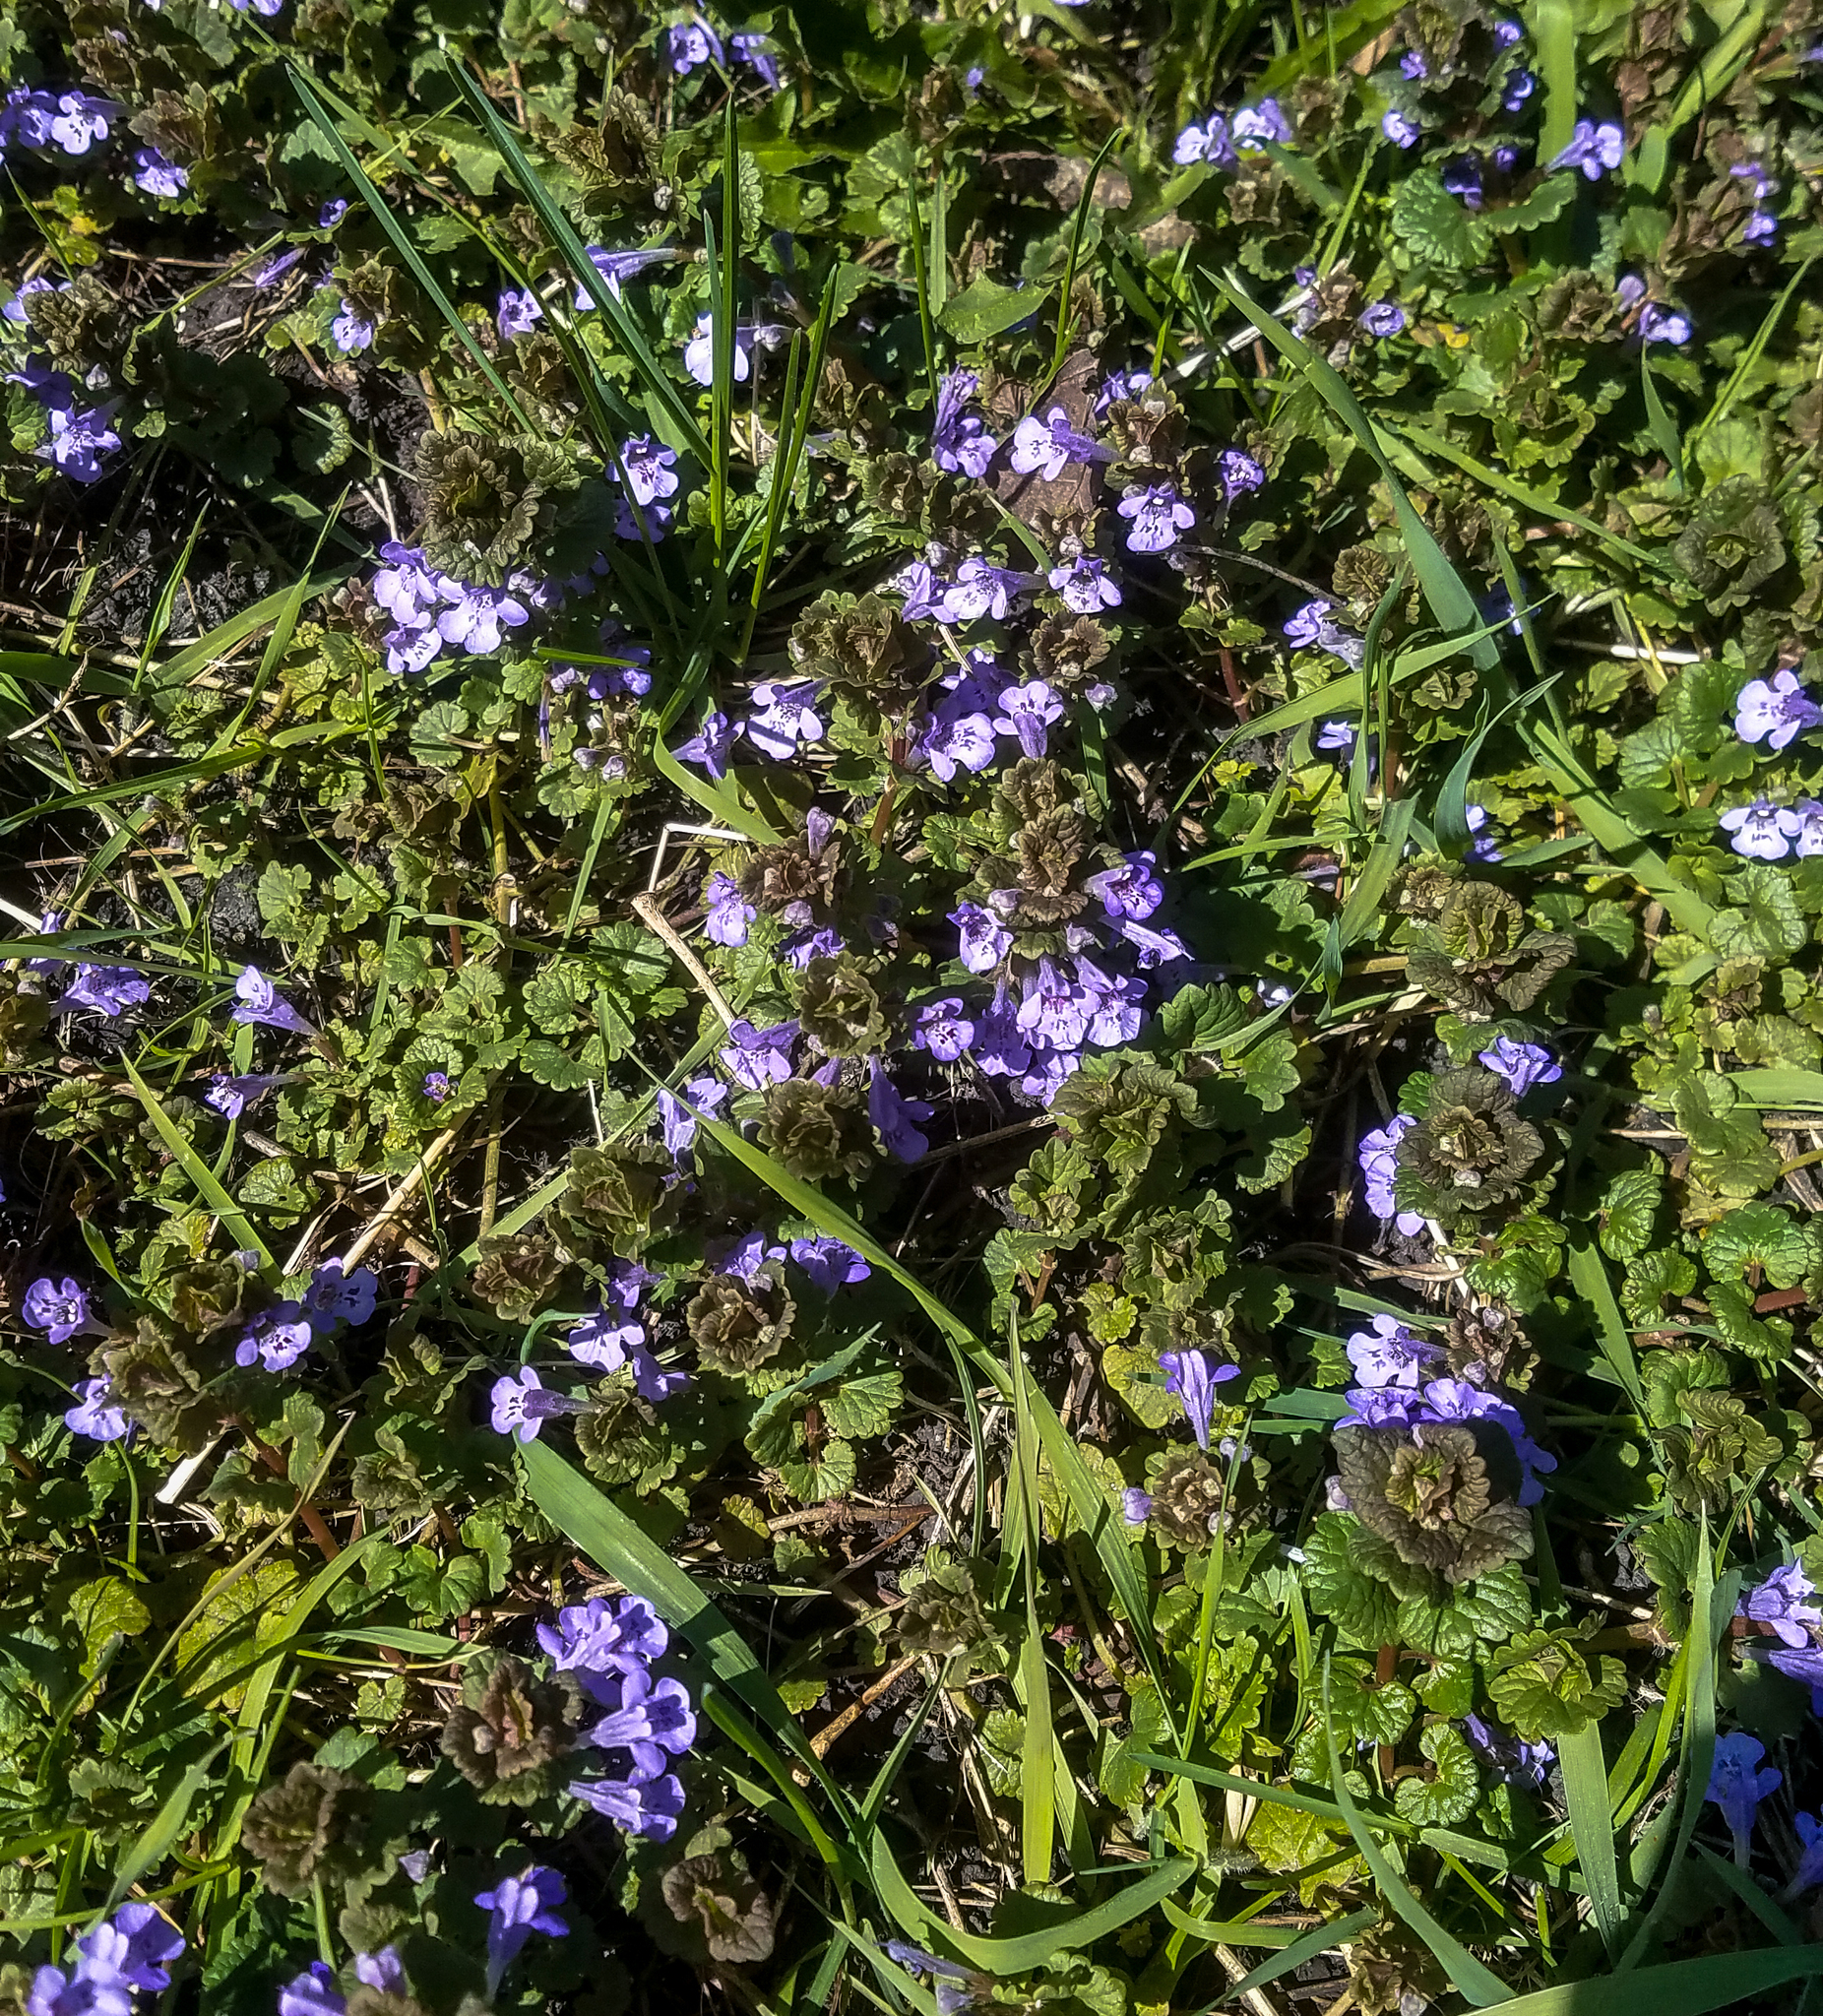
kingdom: Plantae
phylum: Tracheophyta
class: Magnoliopsida
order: Lamiales
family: Lamiaceae
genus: Glechoma
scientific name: Glechoma hederacea
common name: Ground ivy
